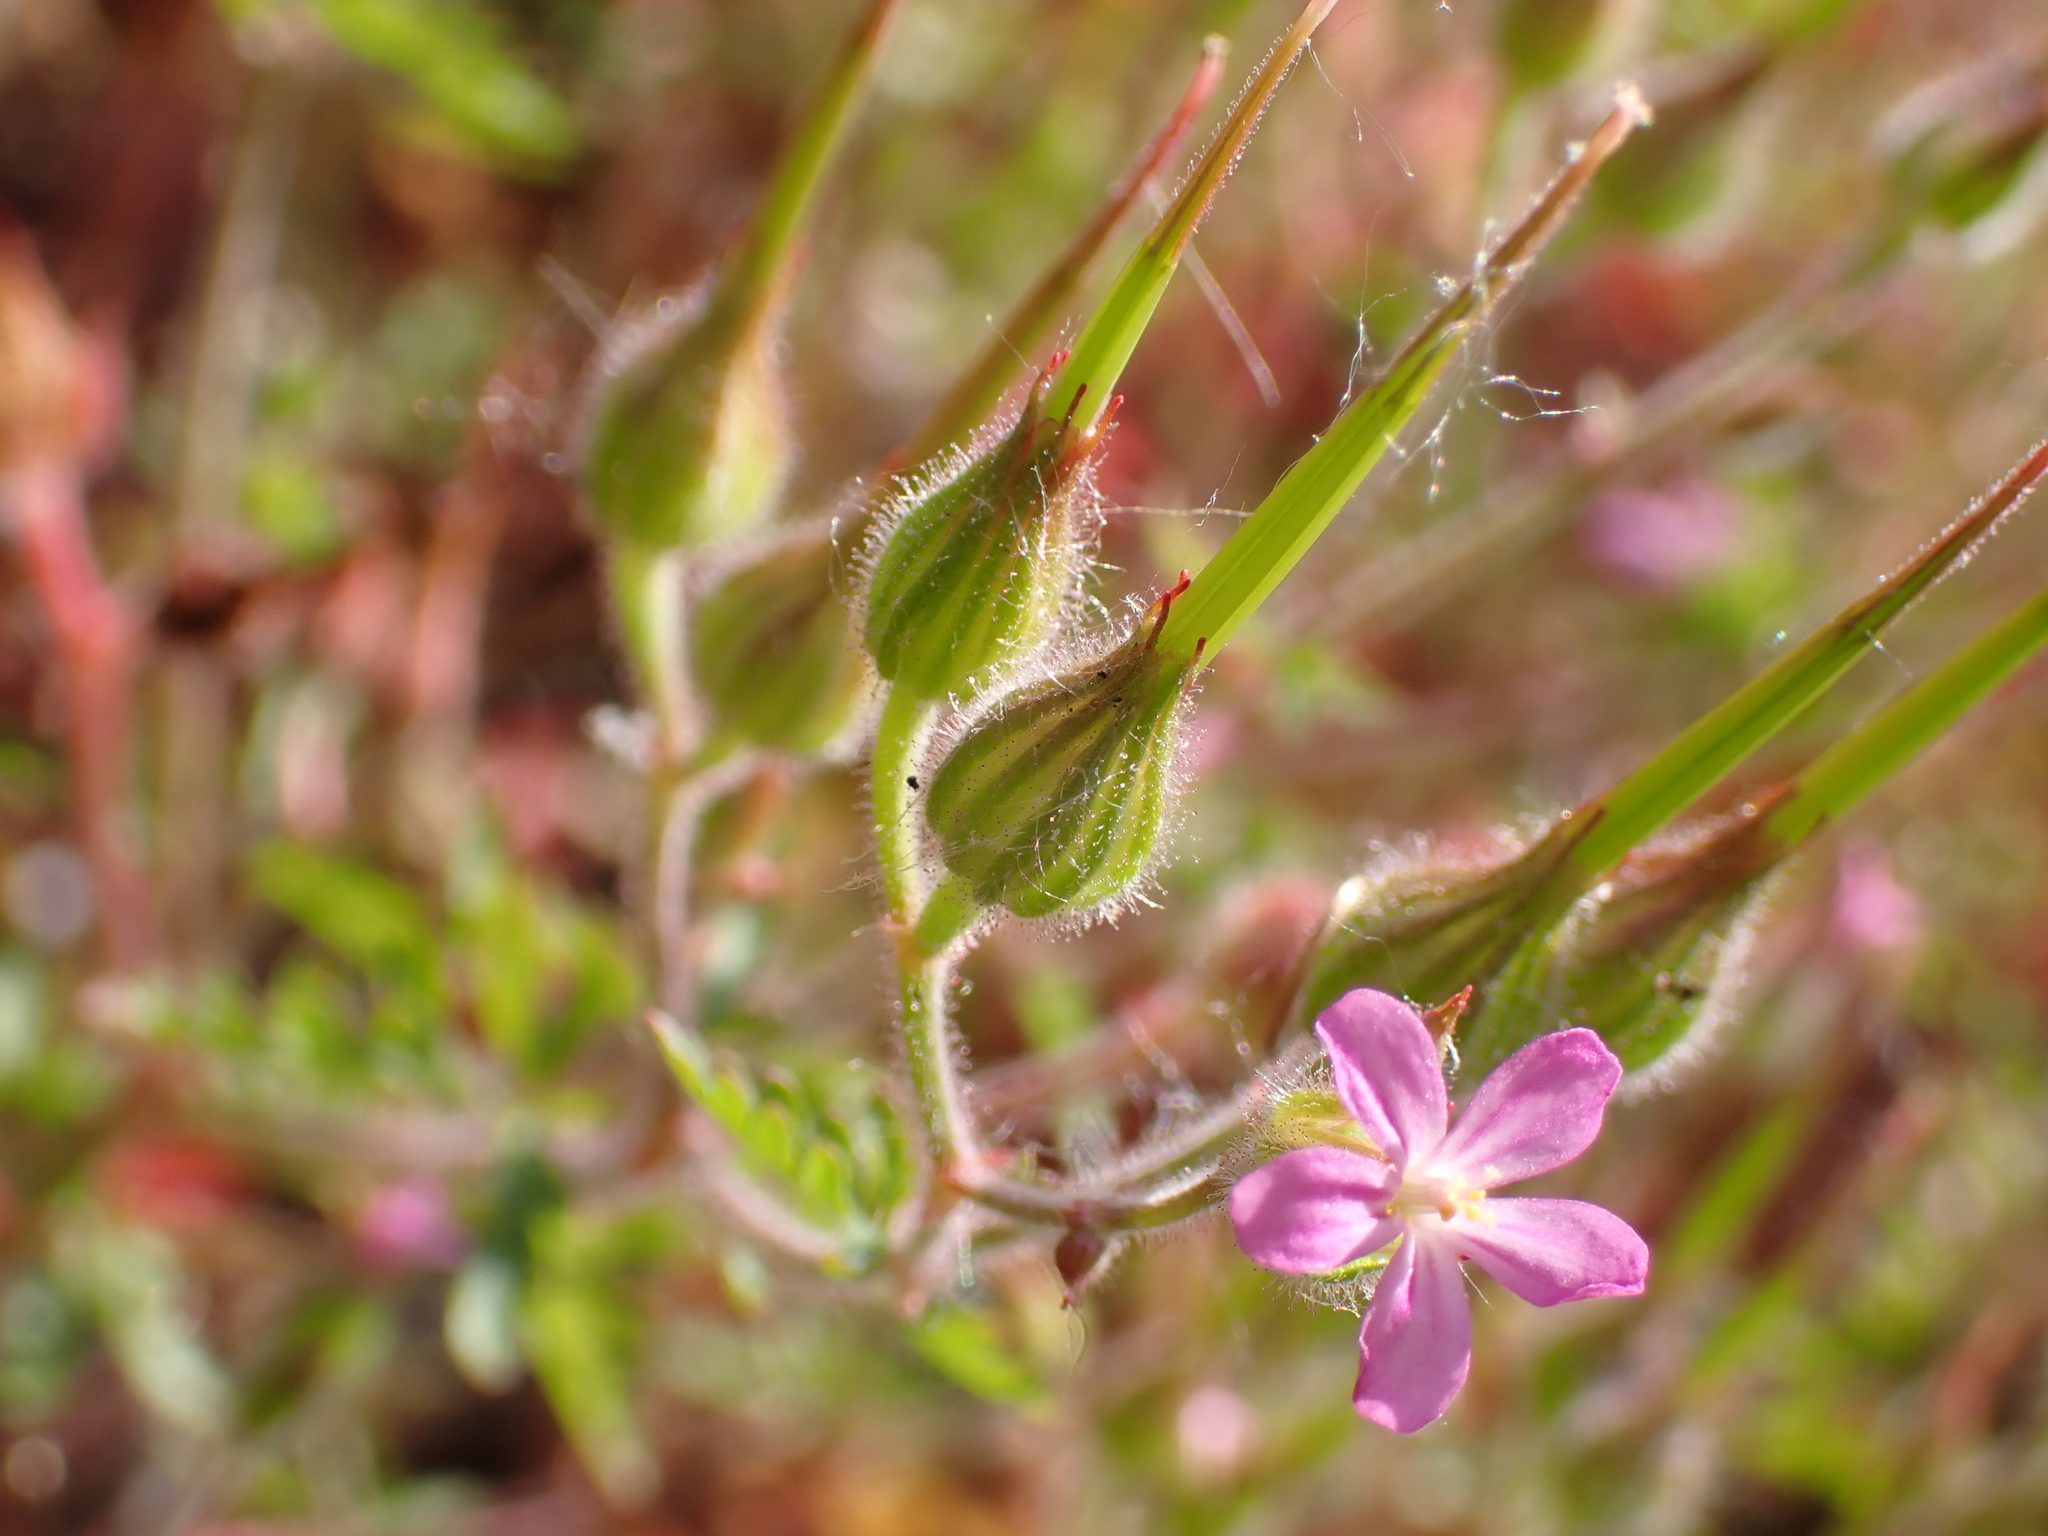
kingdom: Plantae
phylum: Tracheophyta
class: Magnoliopsida
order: Geraniales
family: Geraniaceae
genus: Geranium
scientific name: Geranium purpureum
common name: Little-robin
